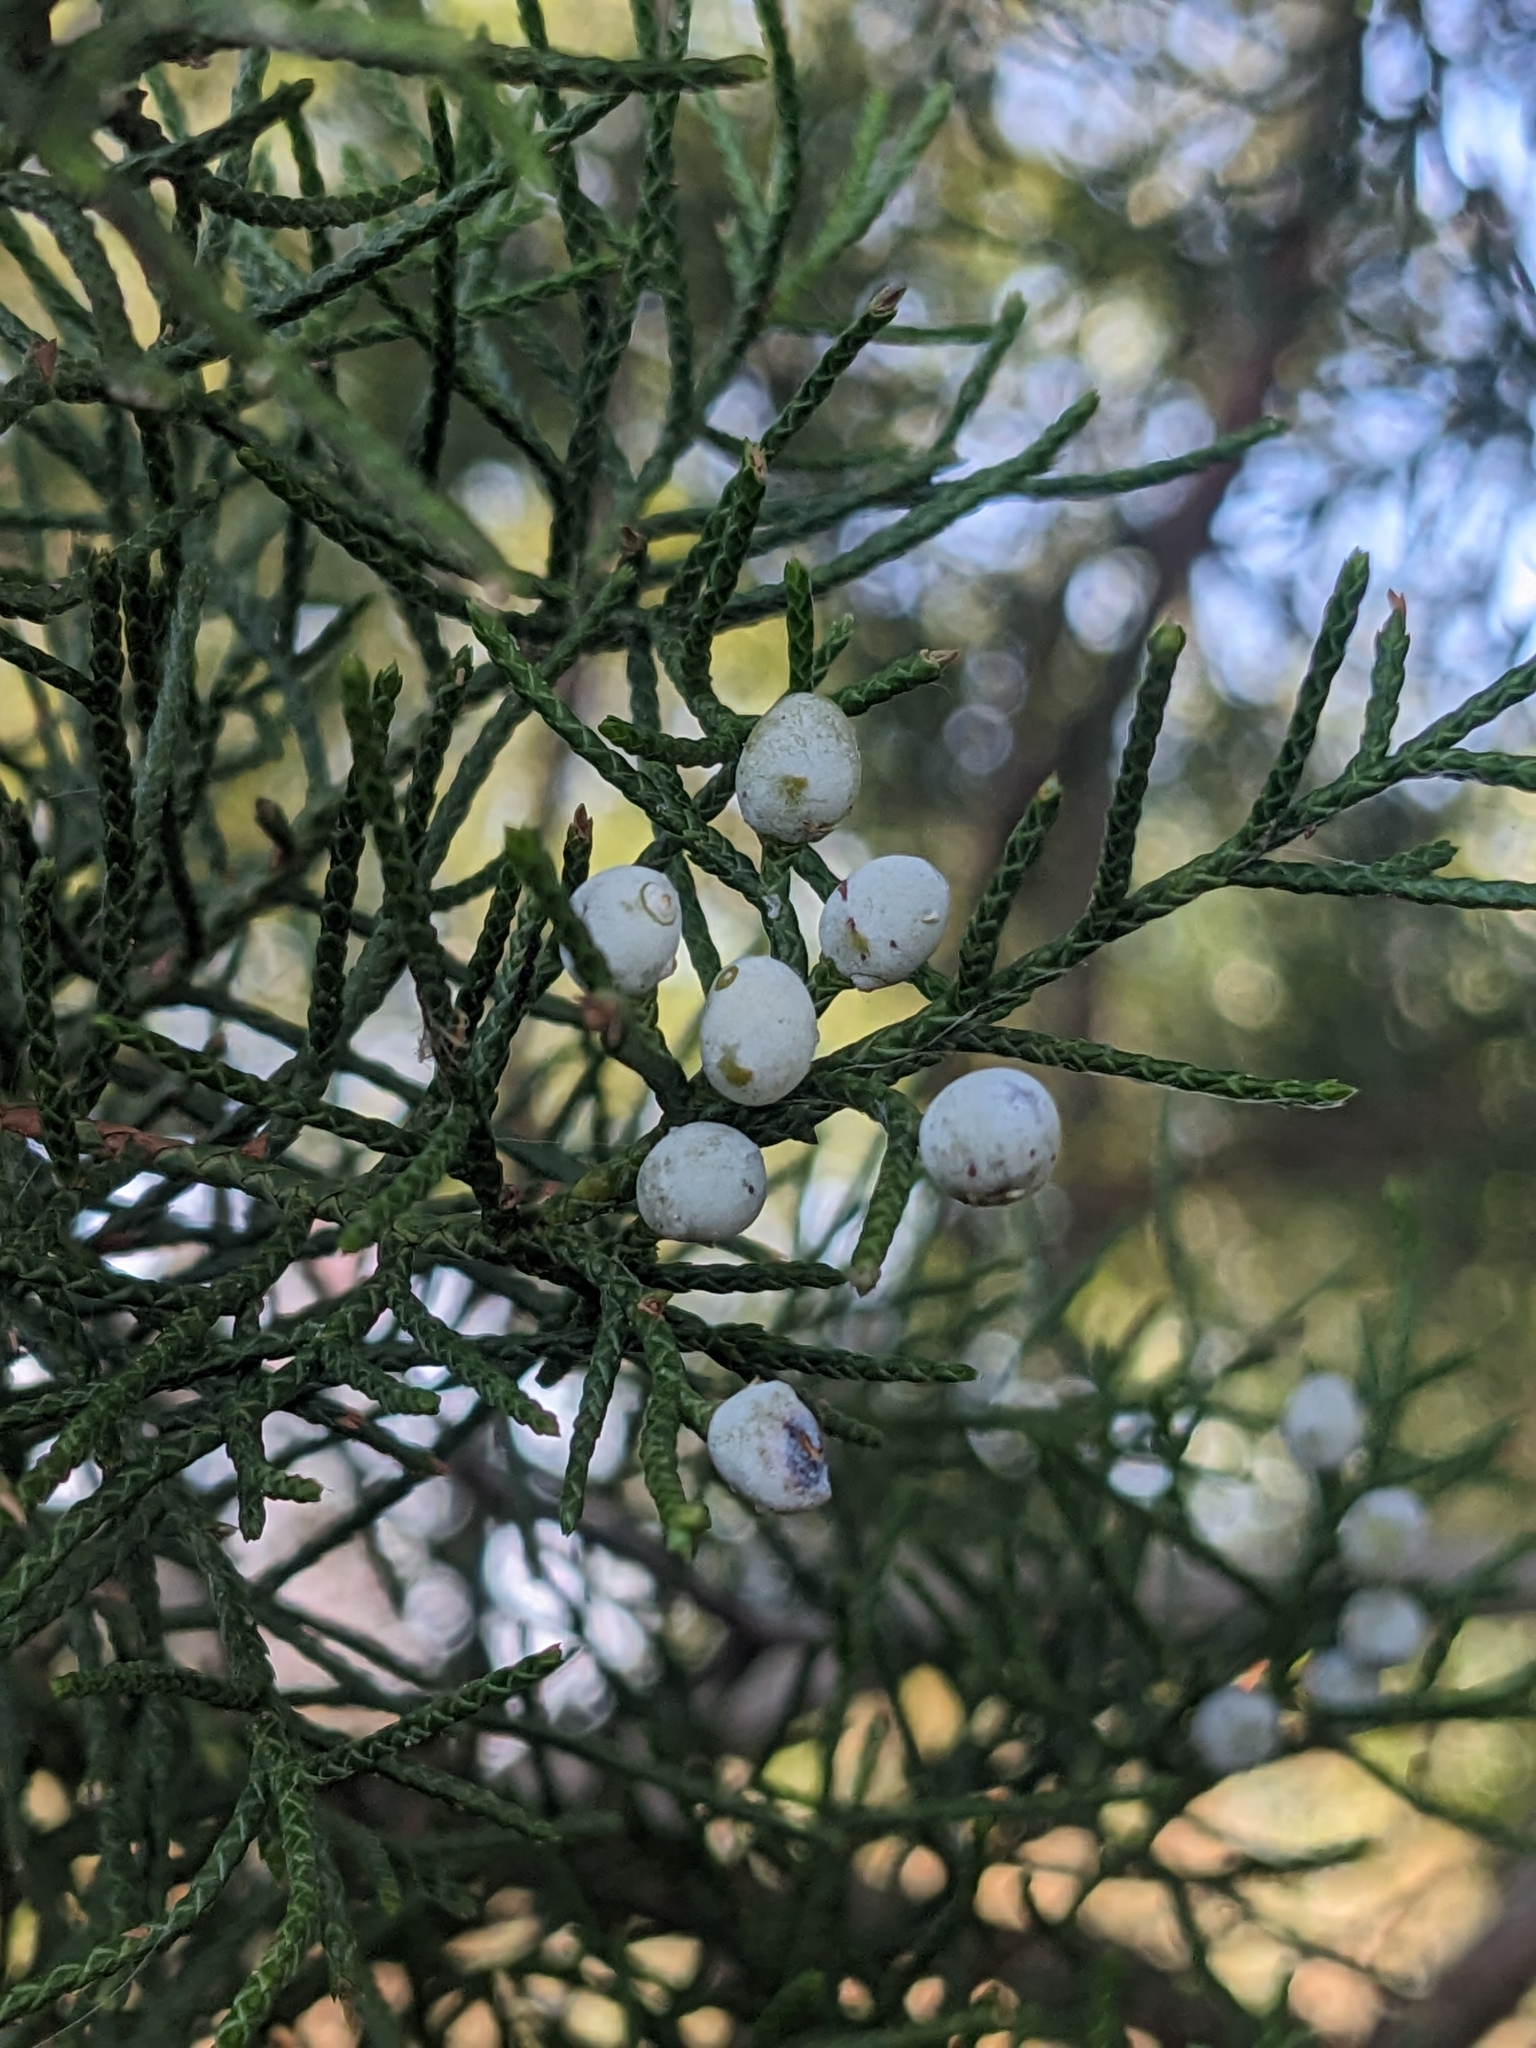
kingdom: Plantae
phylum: Tracheophyta
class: Pinopsida
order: Pinales
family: Cupressaceae
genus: Juniperus
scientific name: Juniperus virginiana
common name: Red juniper
